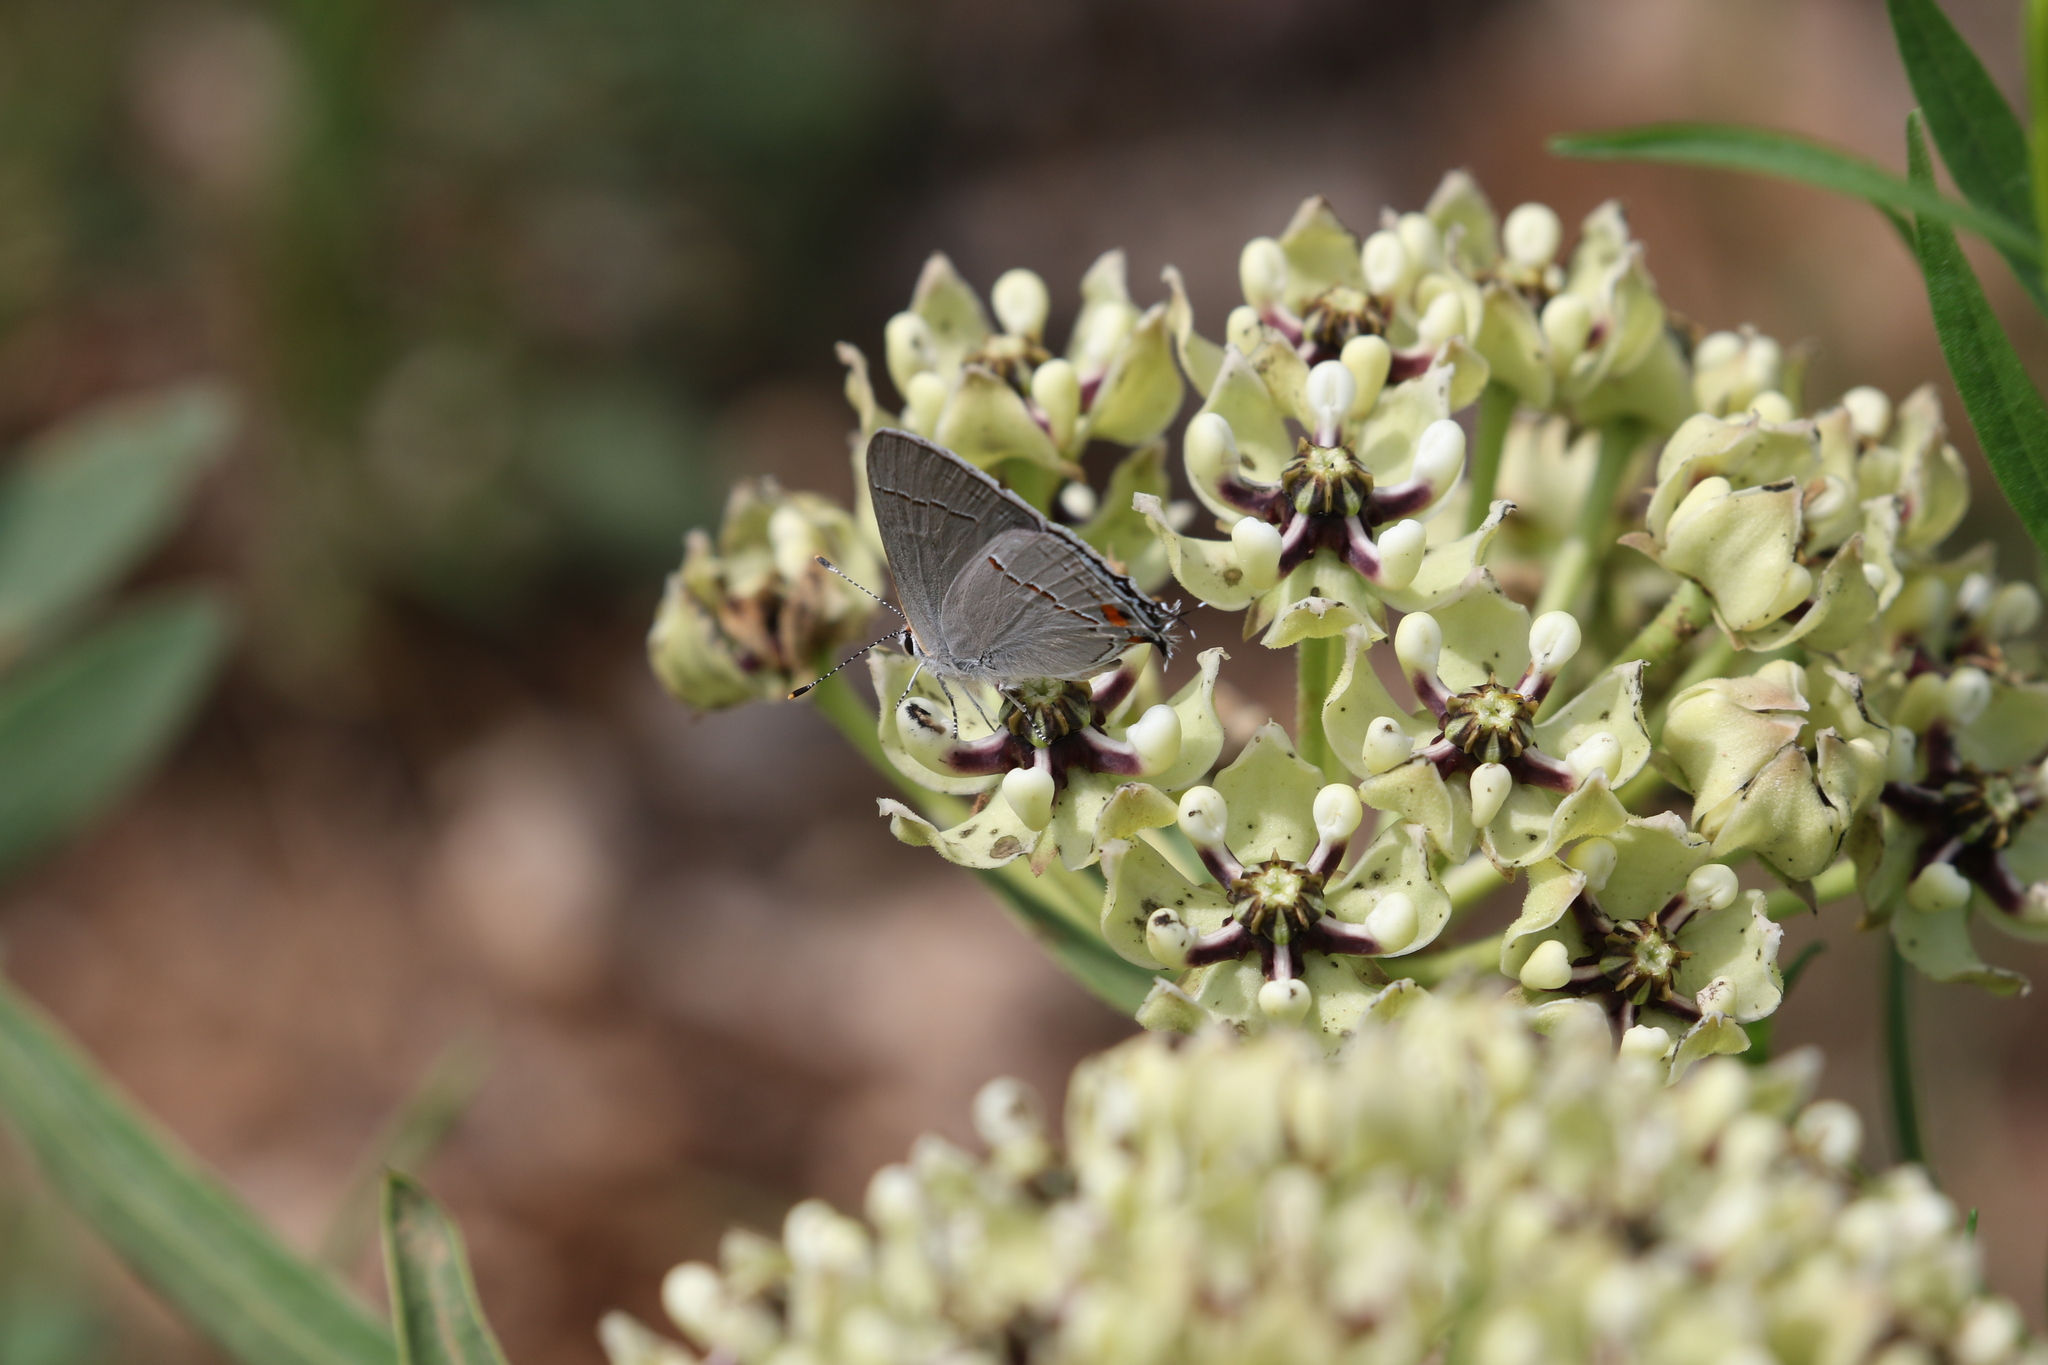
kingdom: Animalia
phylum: Arthropoda
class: Insecta
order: Lepidoptera
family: Lycaenidae
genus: Strymon
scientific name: Strymon melinus
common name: Gray hairstreak
